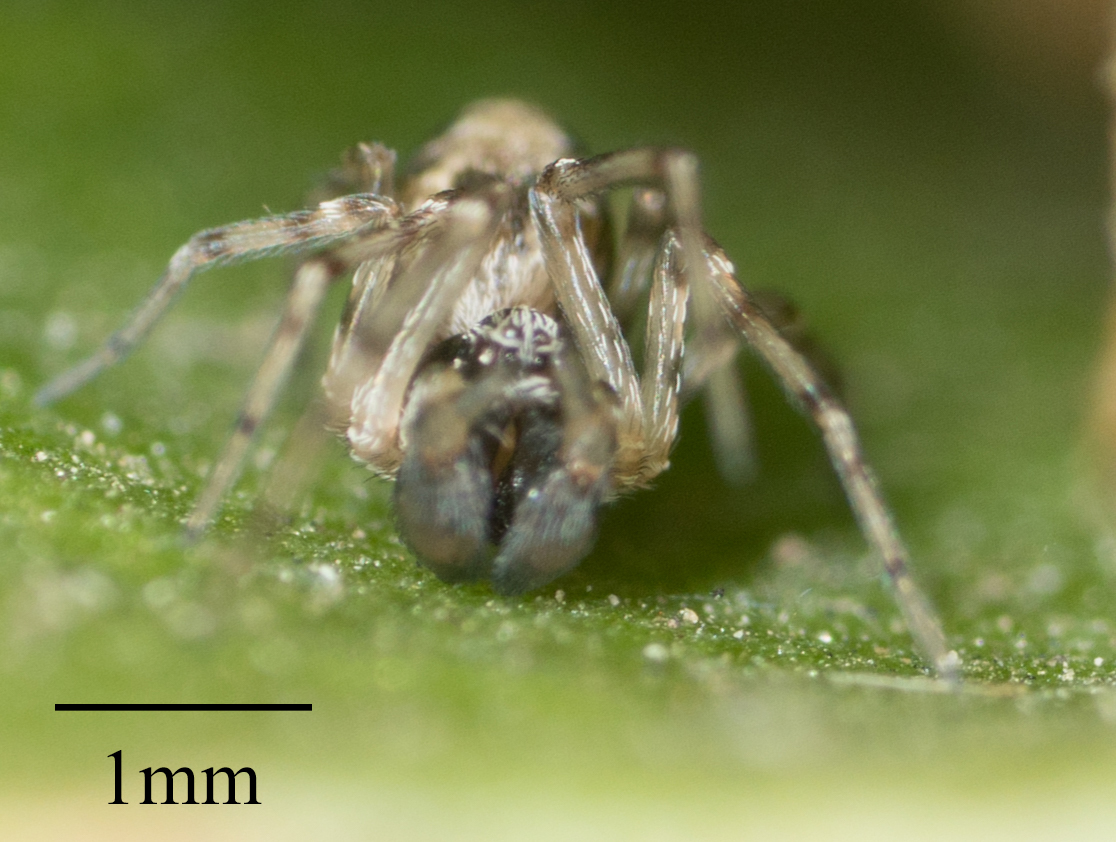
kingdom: Animalia
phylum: Arthropoda
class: Arachnida
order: Araneae
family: Dictynidae
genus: Dictyna
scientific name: Dictyna calcarata
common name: Mesh weaver
